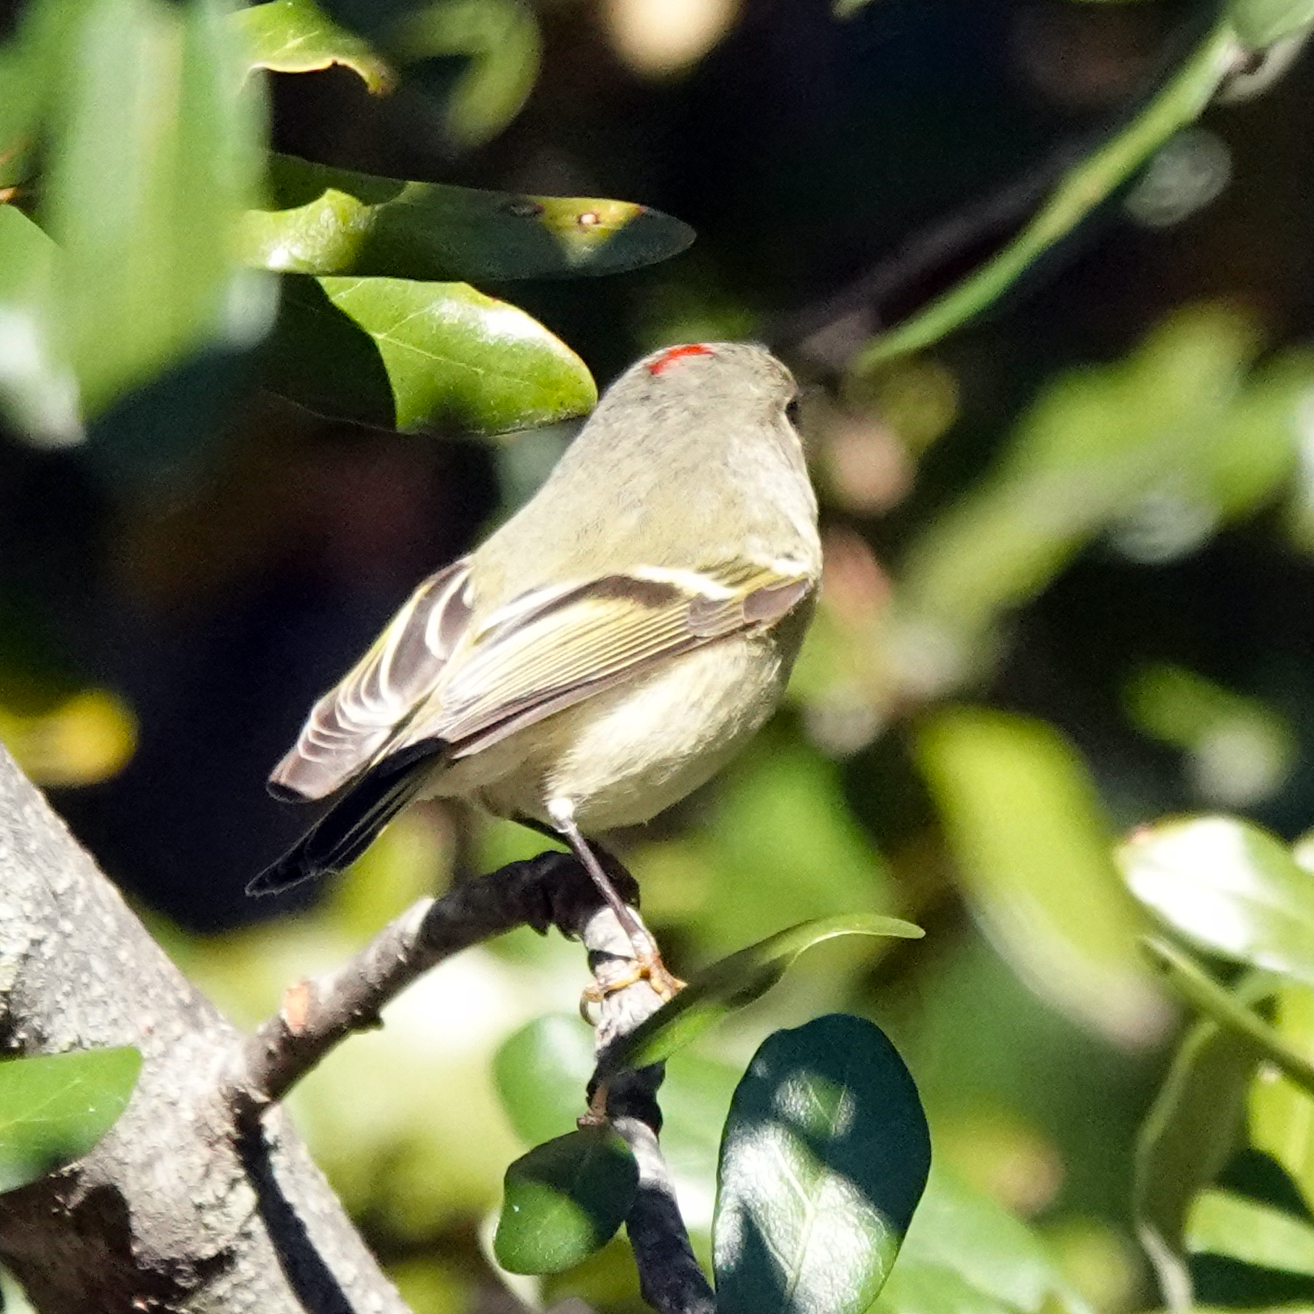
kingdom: Animalia
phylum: Chordata
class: Aves
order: Passeriformes
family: Regulidae
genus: Regulus
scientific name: Regulus calendula
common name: Ruby-crowned kinglet
